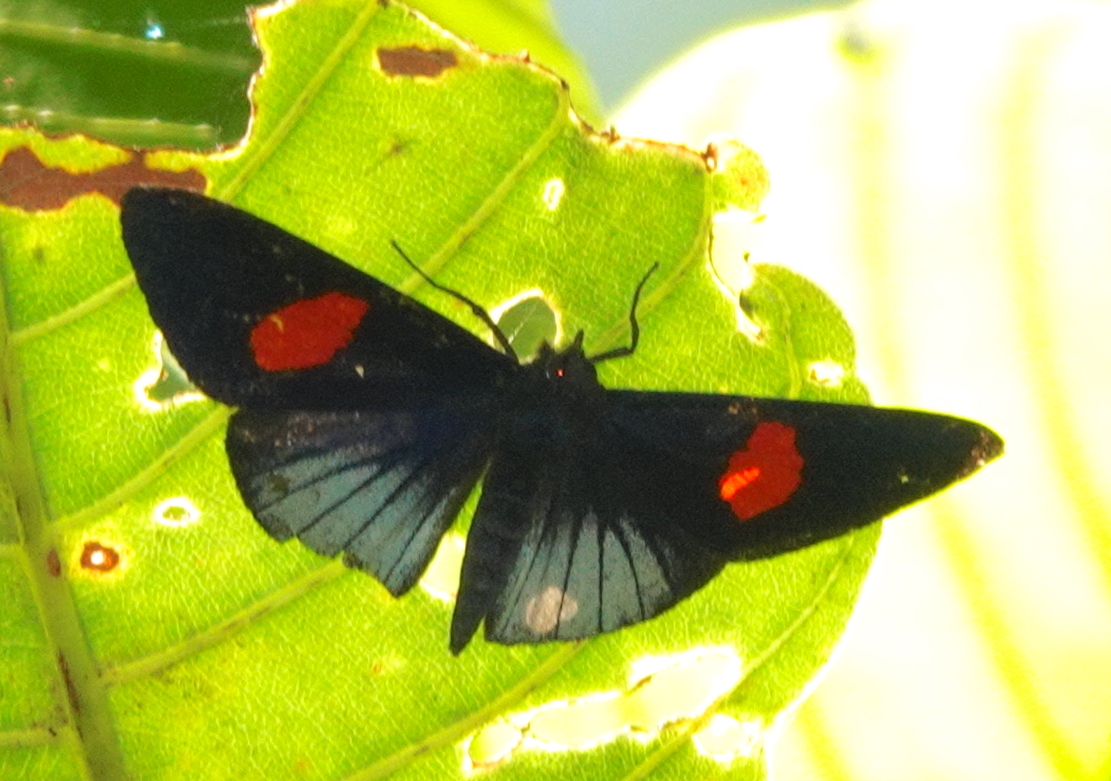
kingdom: Animalia
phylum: Arthropoda
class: Insecta
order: Lepidoptera
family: Riodinidae
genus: Lucillella
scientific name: Lucillella
